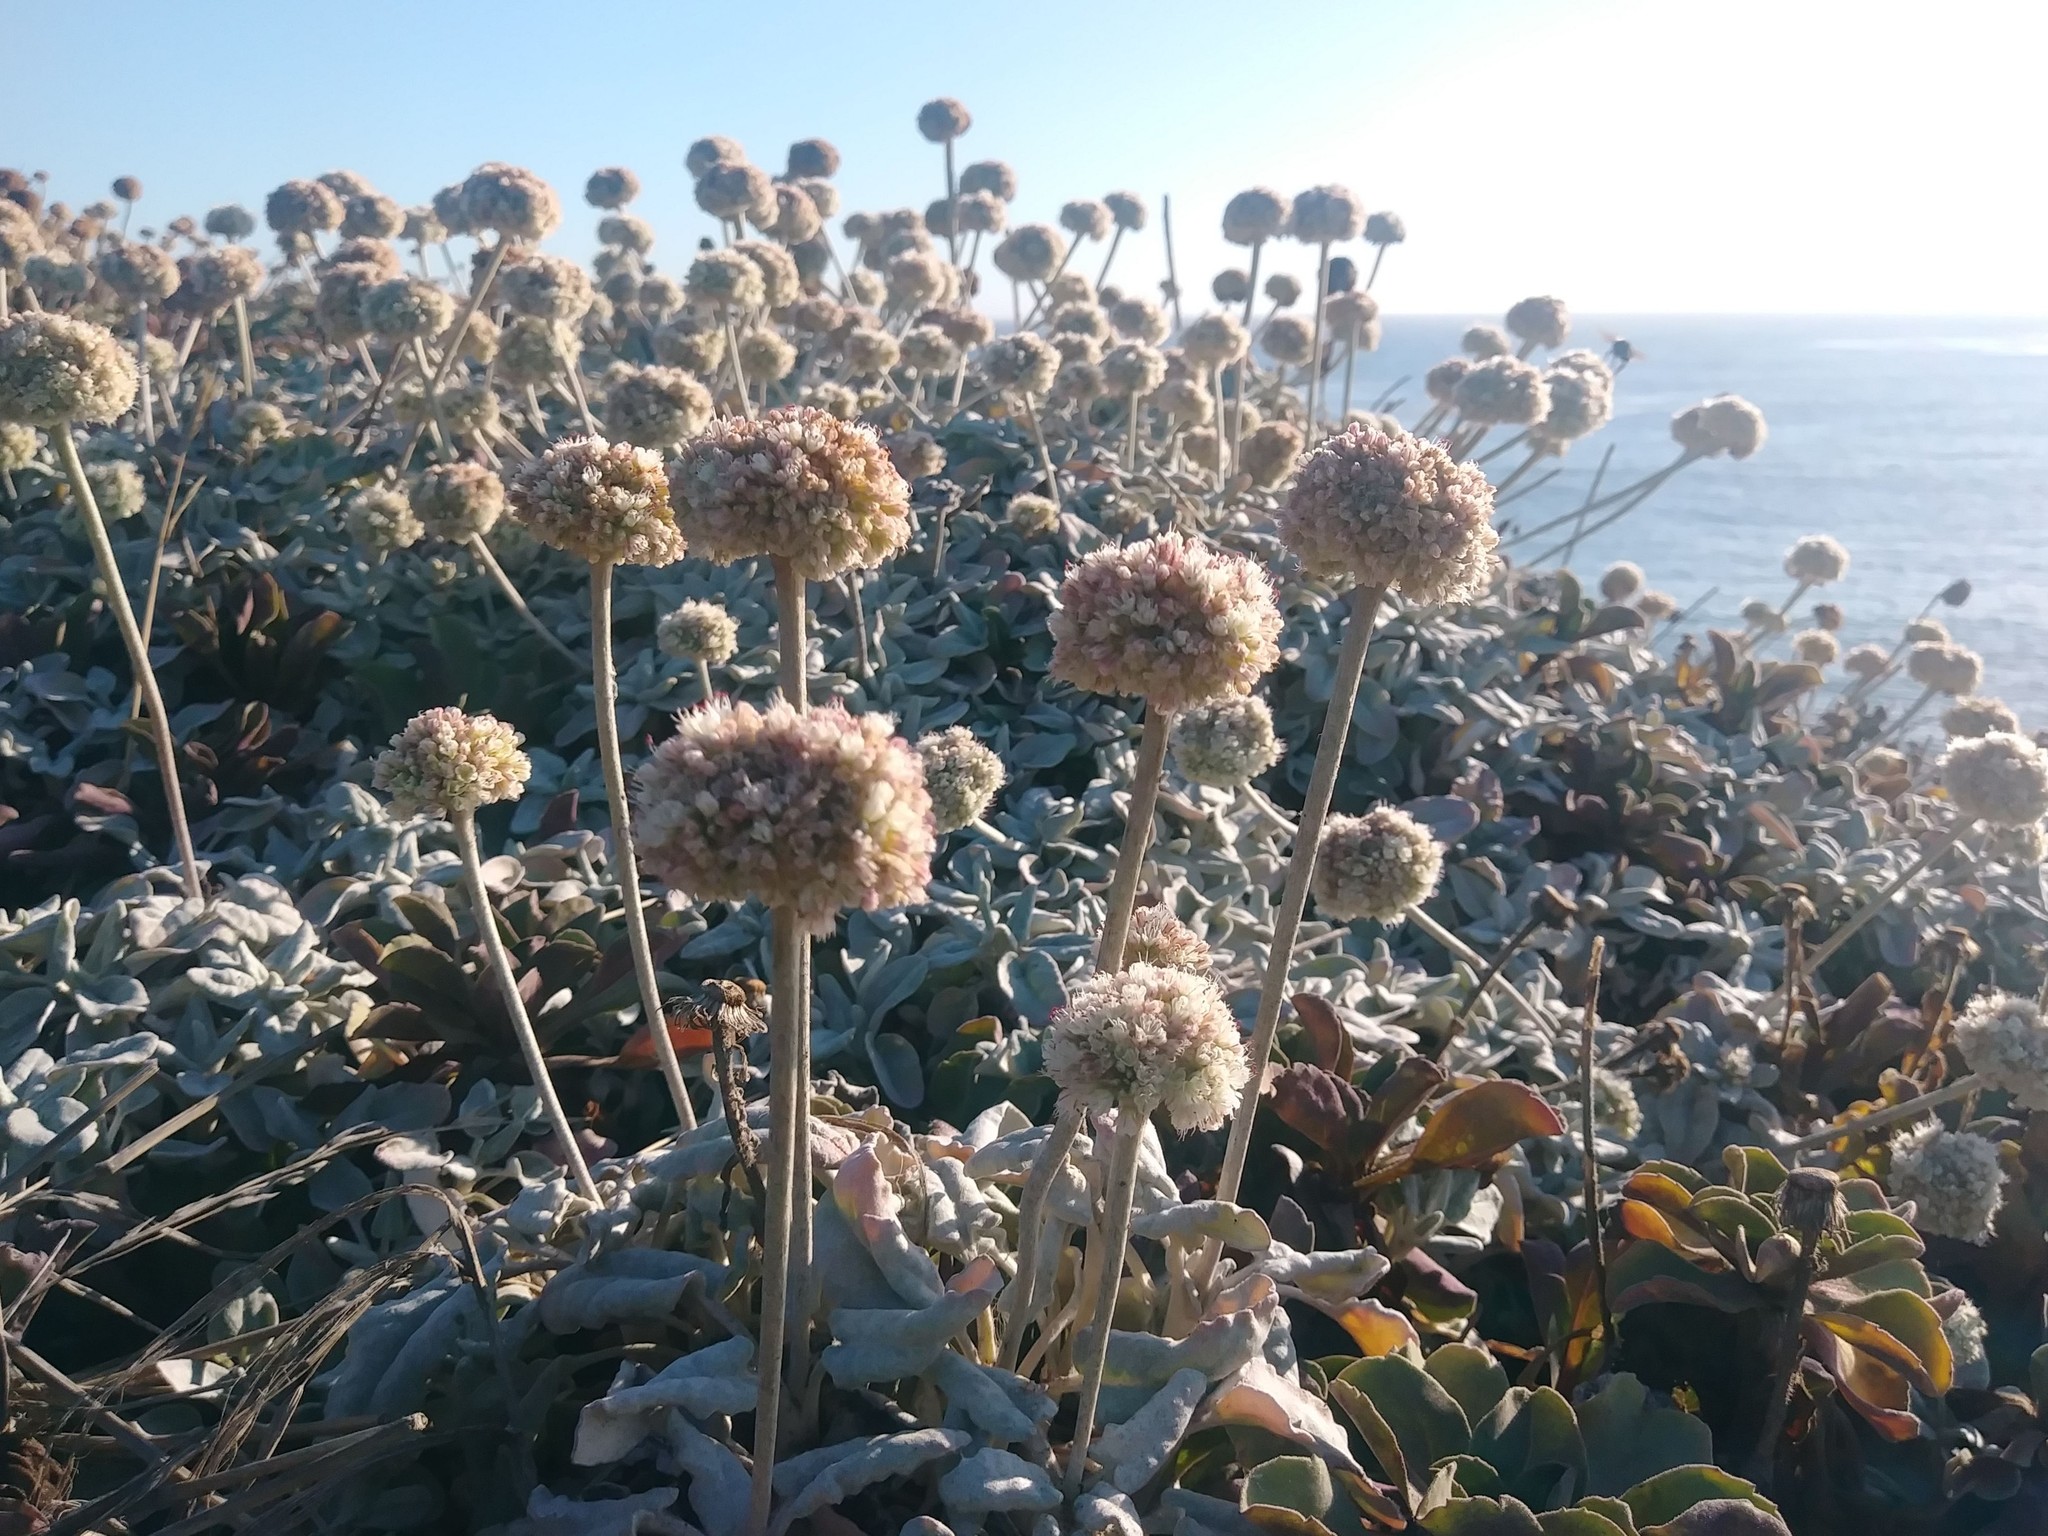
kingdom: Plantae
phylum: Tracheophyta
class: Magnoliopsida
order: Caryophyllales
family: Polygonaceae
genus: Eriogonum
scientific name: Eriogonum latifolium
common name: Seaside wild buckwheat
